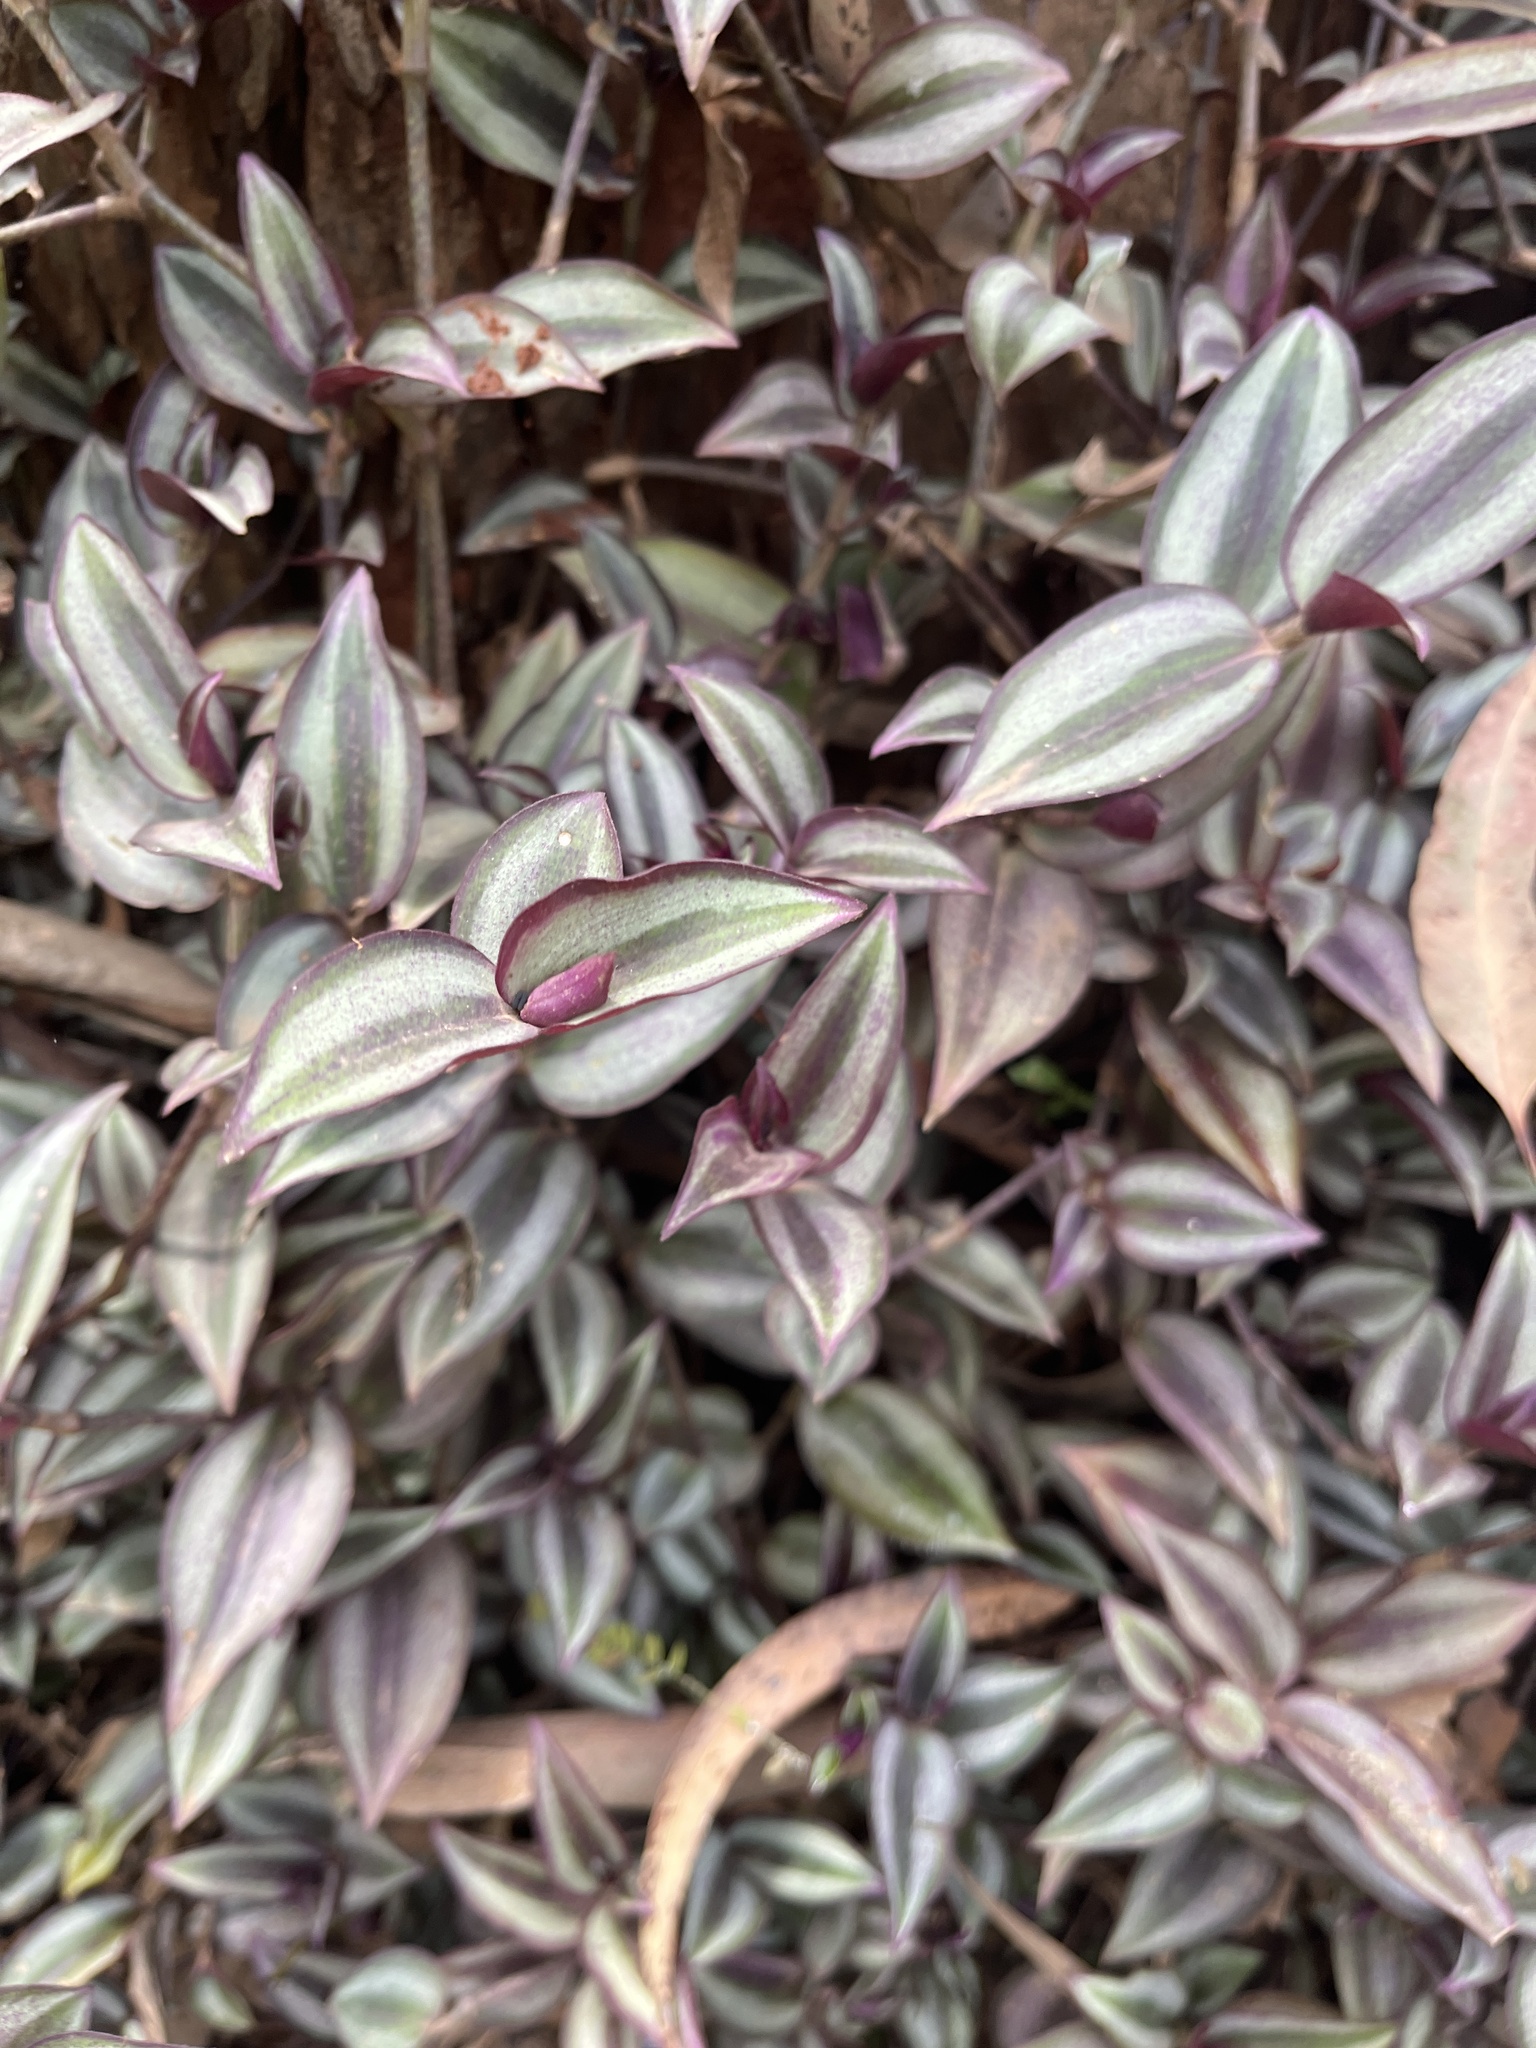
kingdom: Plantae
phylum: Tracheophyta
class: Liliopsida
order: Commelinales
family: Commelinaceae
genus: Tradescantia
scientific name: Tradescantia zebrina
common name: Inchplant
